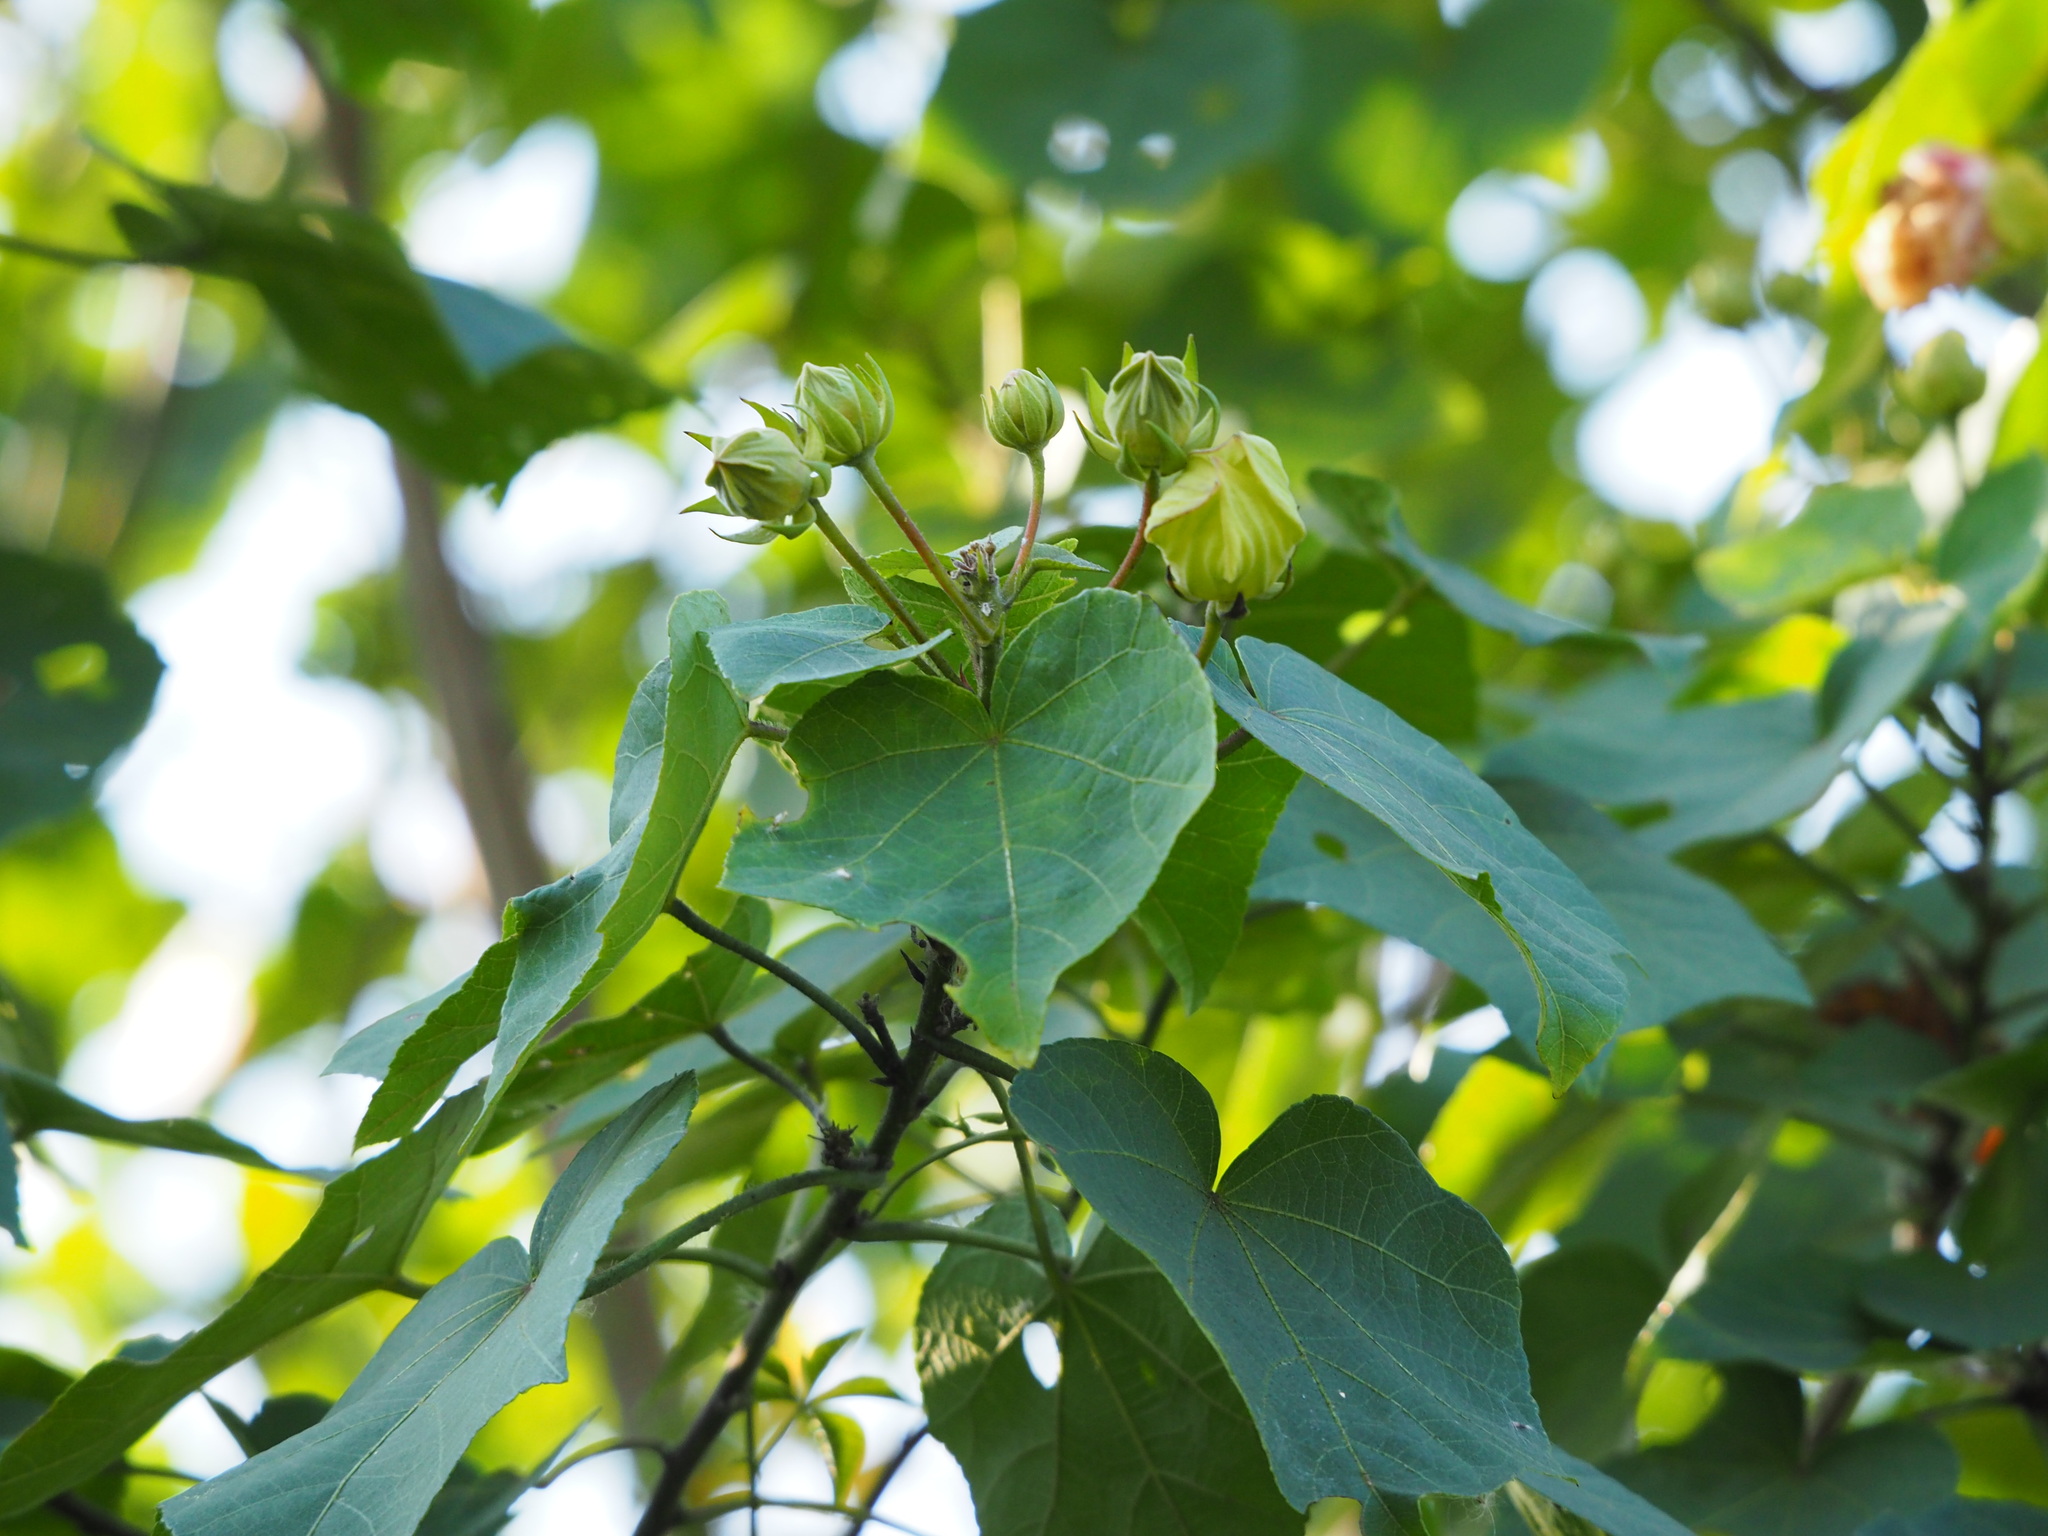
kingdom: Plantae
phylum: Tracheophyta
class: Magnoliopsida
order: Malvales
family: Malvaceae
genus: Hibiscus
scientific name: Hibiscus taiwanensis
